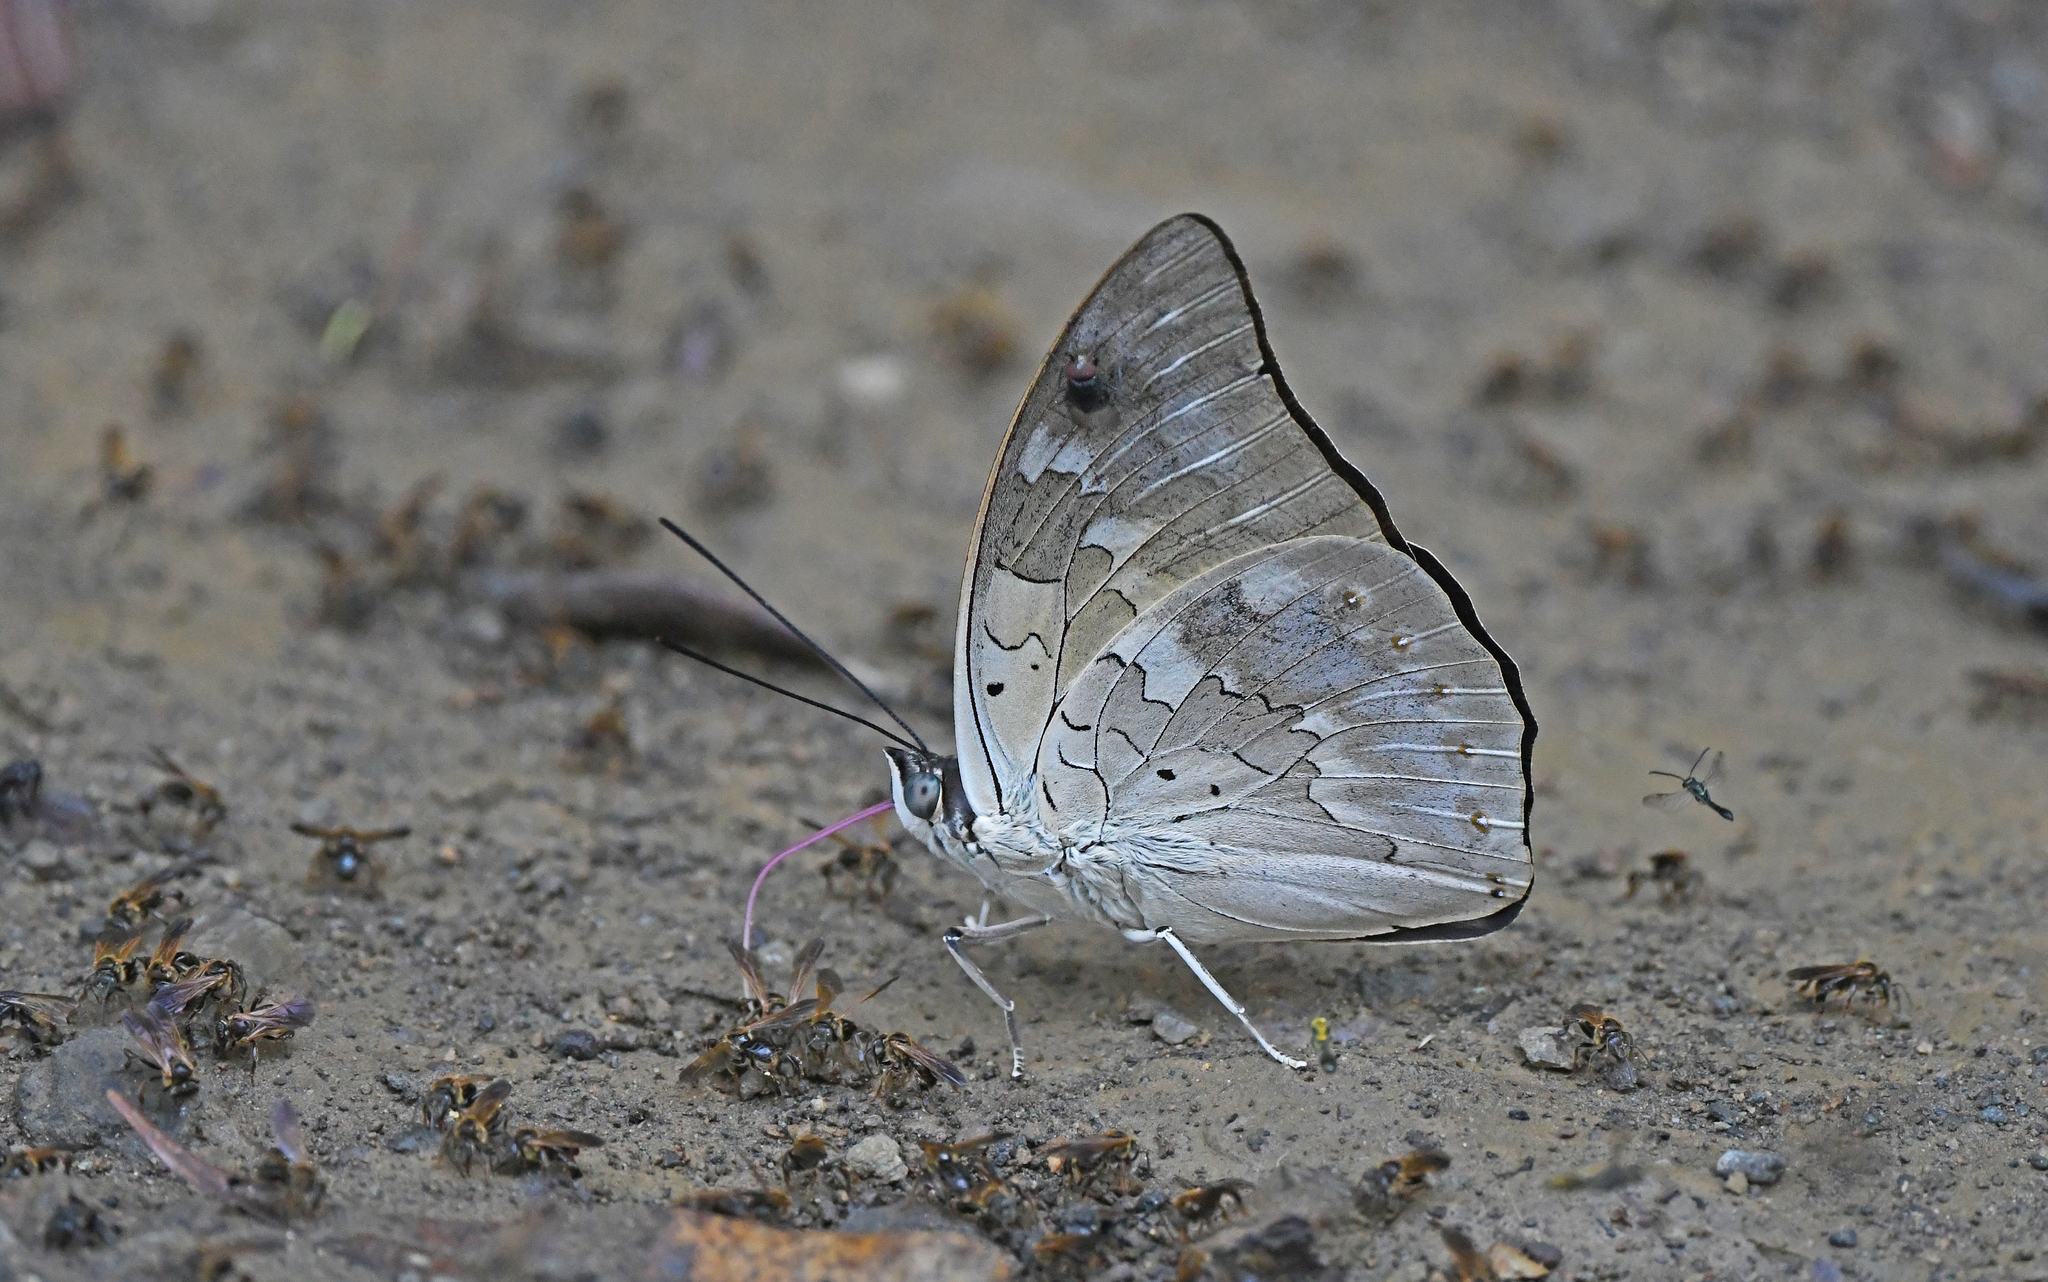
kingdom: Animalia
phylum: Arthropoda
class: Insecta
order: Lepidoptera
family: Nymphalidae
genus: Prepona
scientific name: Prepona laertes
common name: Butterfly
